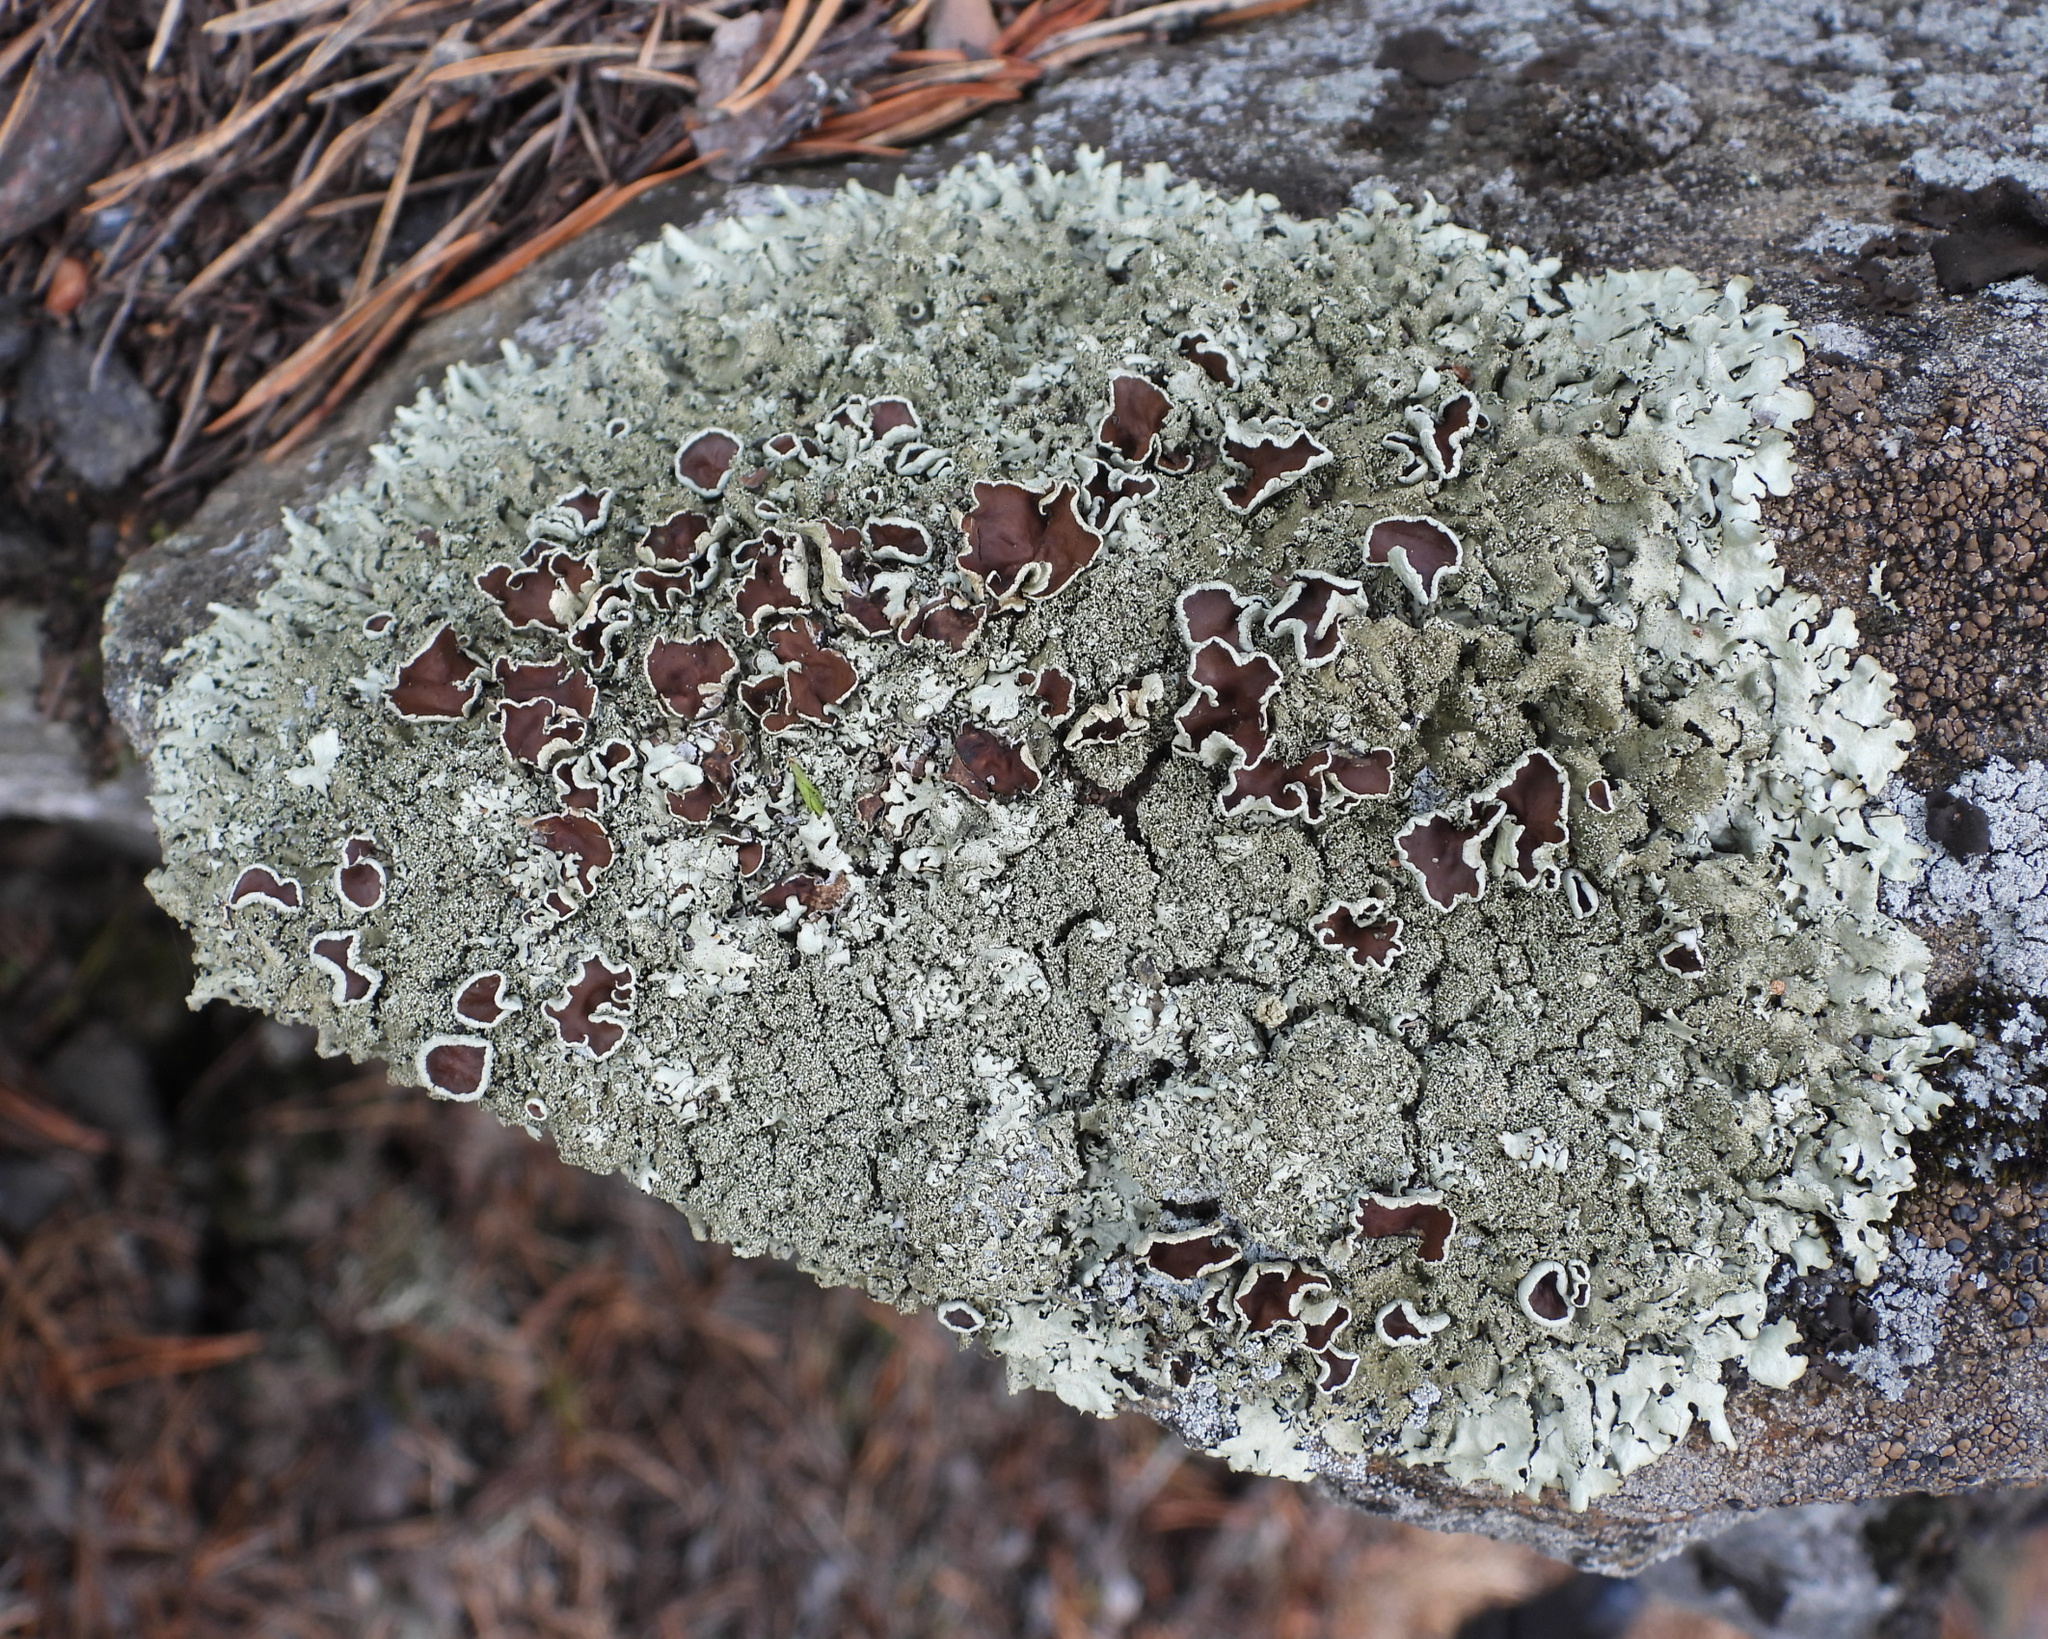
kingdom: Fungi
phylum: Ascomycota
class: Lecanoromycetes
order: Lecanorales
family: Parmeliaceae
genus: Xanthoparmelia
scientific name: Xanthoparmelia conspersa
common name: Peppered rock shield
